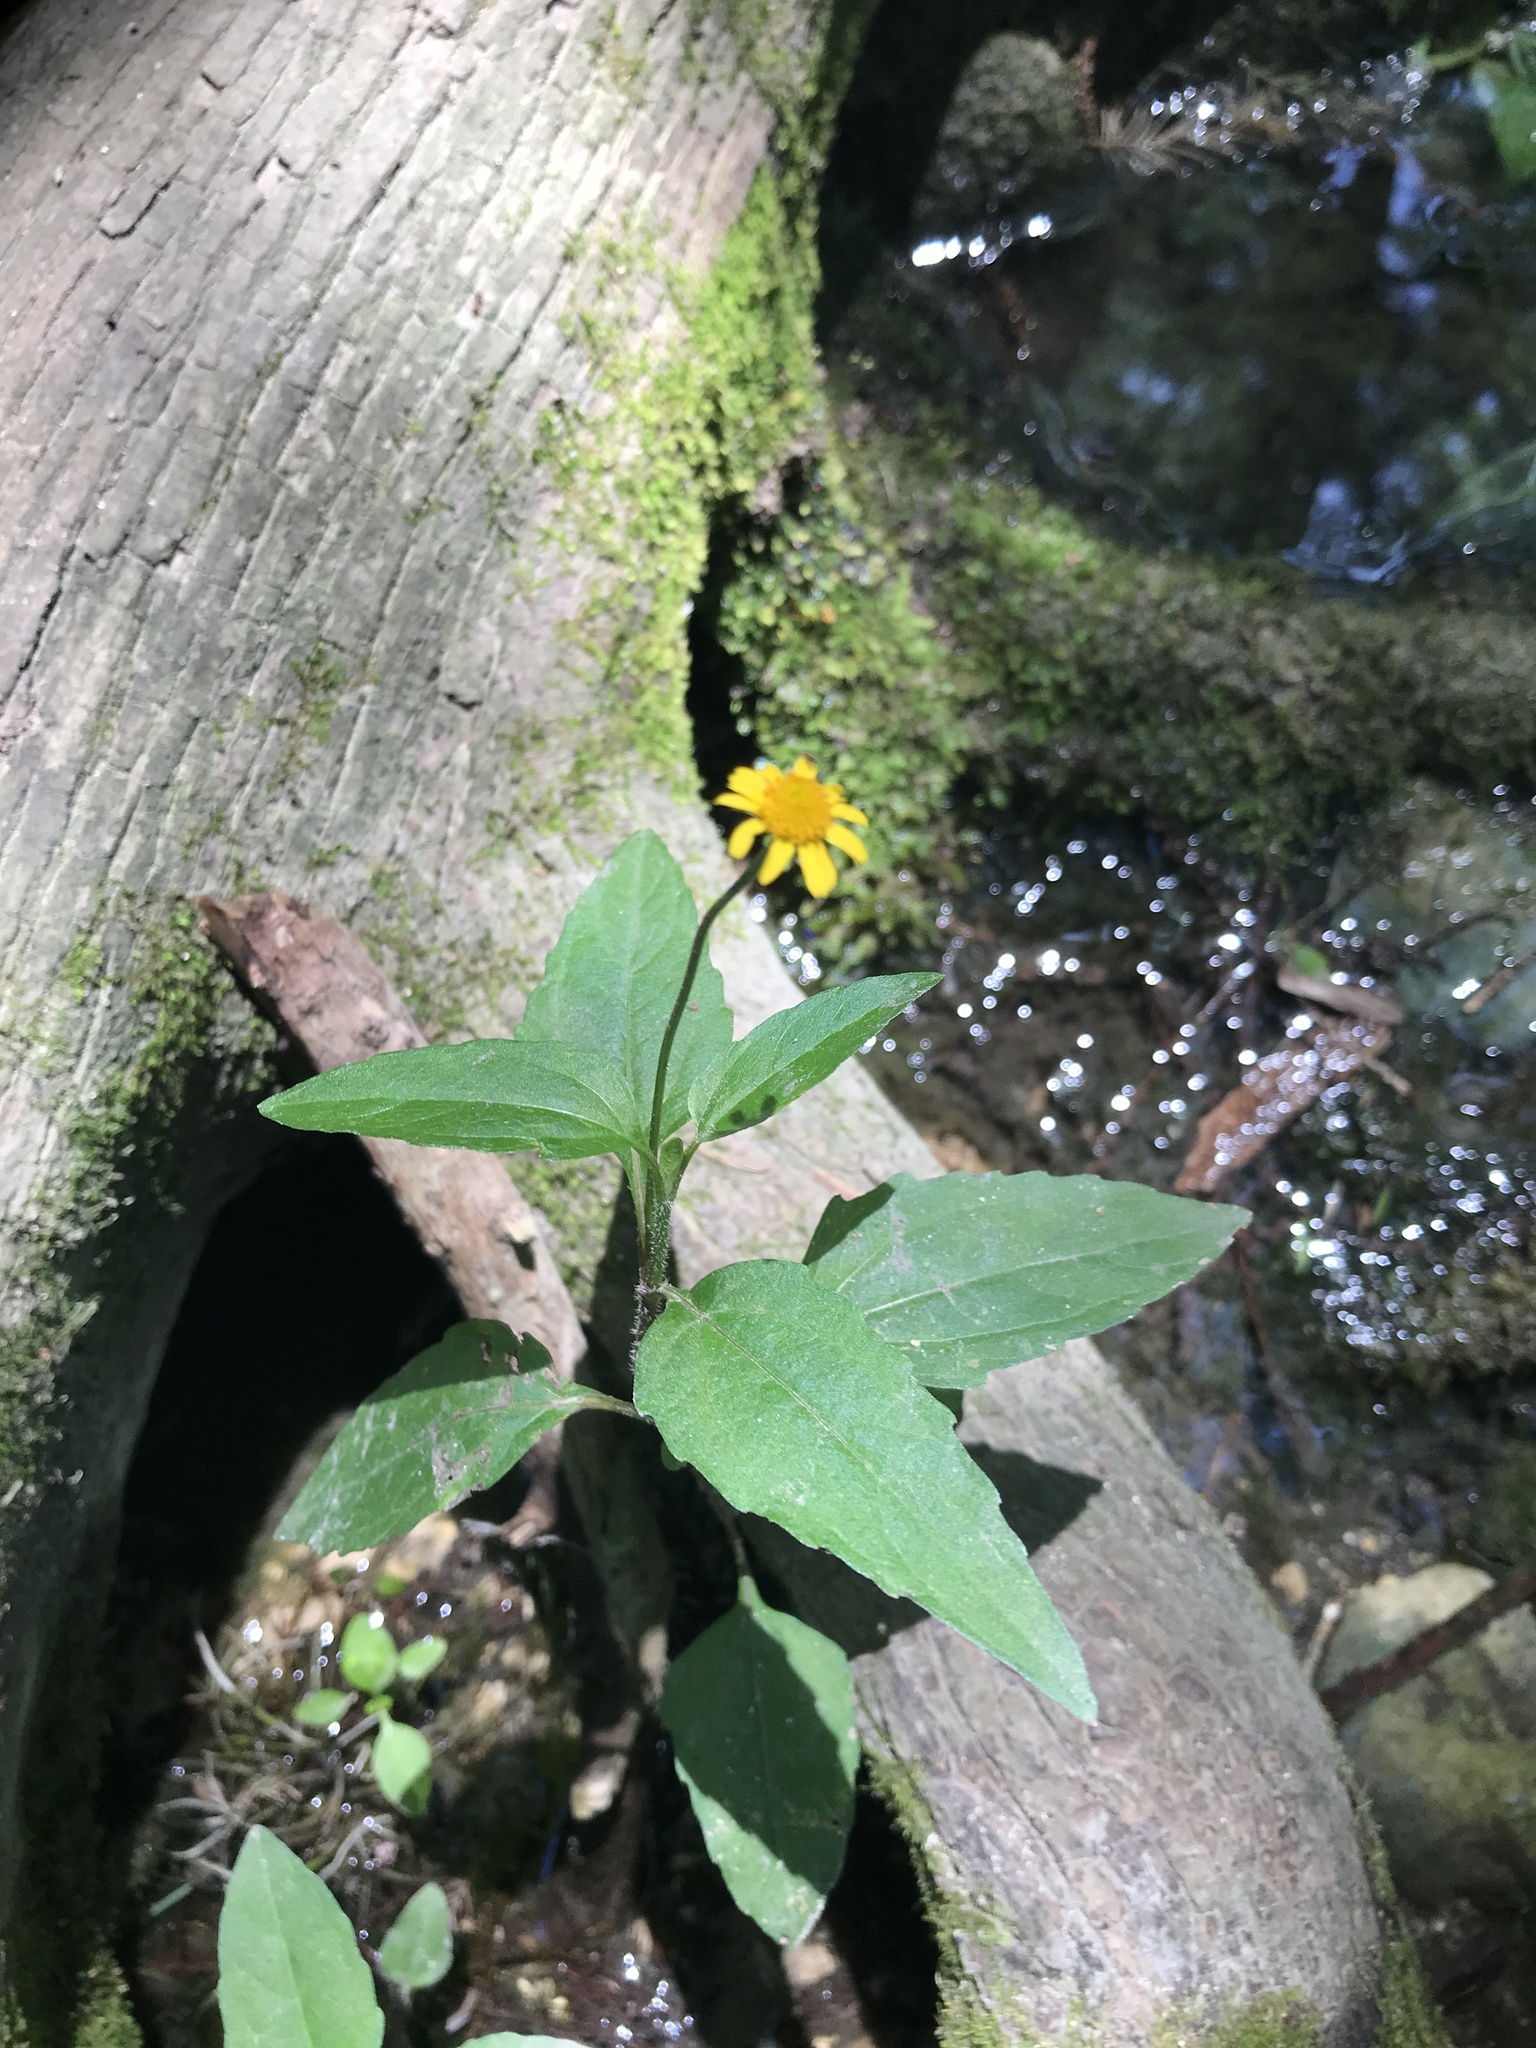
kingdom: Plantae
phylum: Tracheophyta
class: Magnoliopsida
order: Asterales
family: Asteraceae
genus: Acmella
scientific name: Acmella repens
